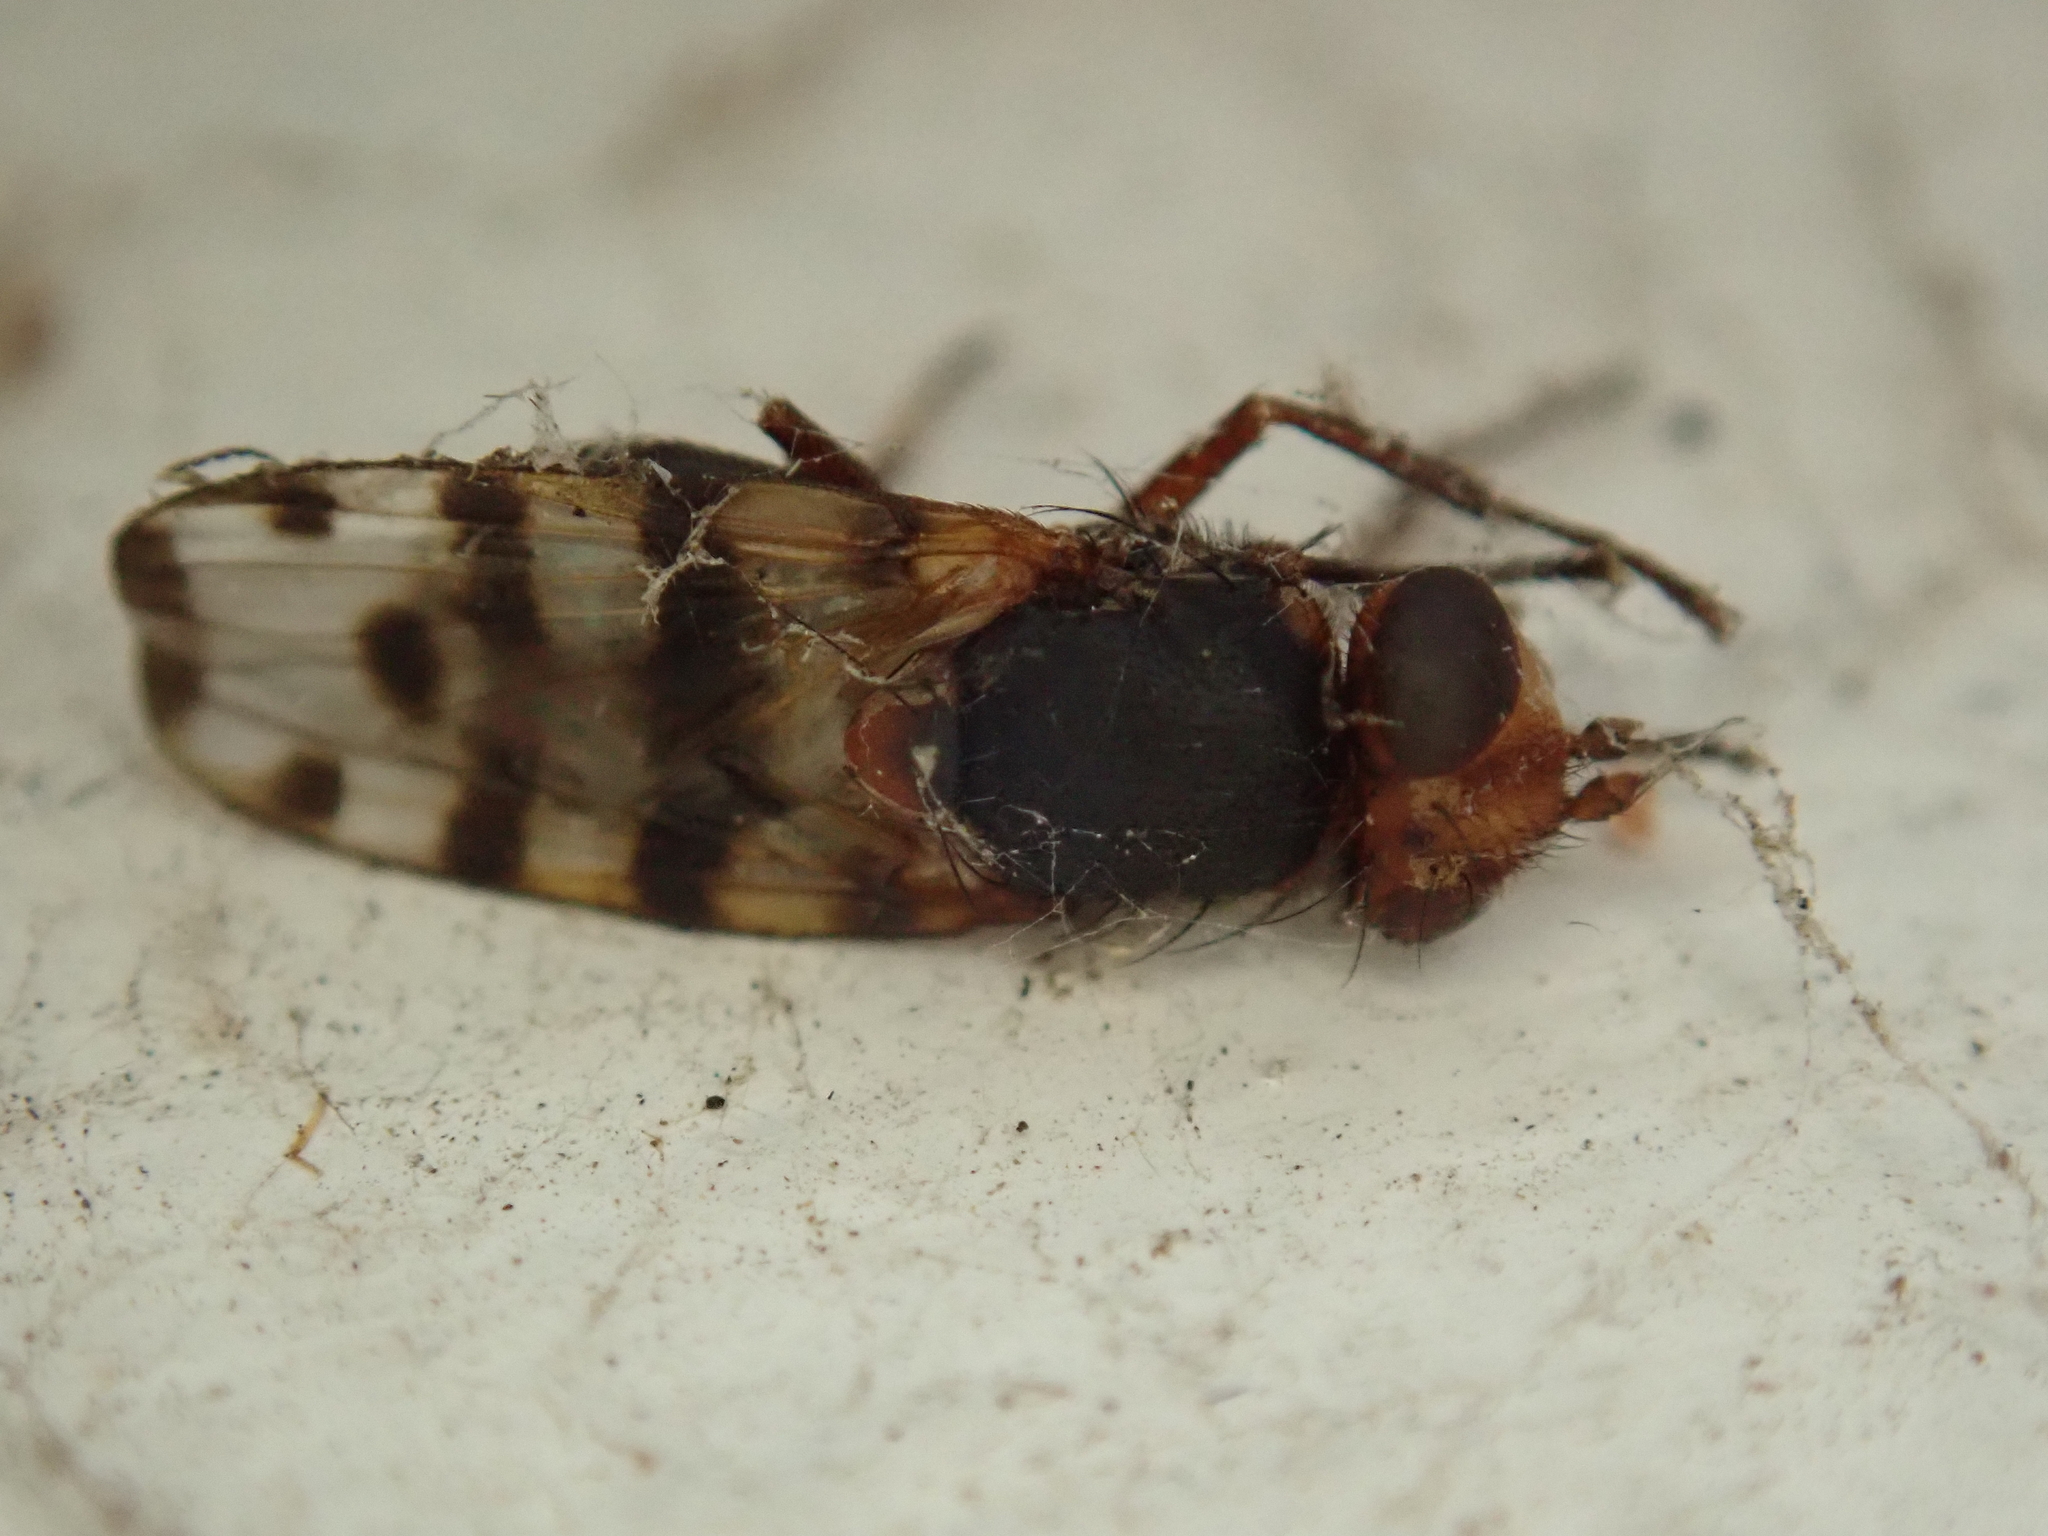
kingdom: Animalia
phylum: Arthropoda
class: Insecta
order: Diptera
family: Ulidiidae
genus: Ceroxys
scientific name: Ceroxys latiusculus
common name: Picture-winged fly
